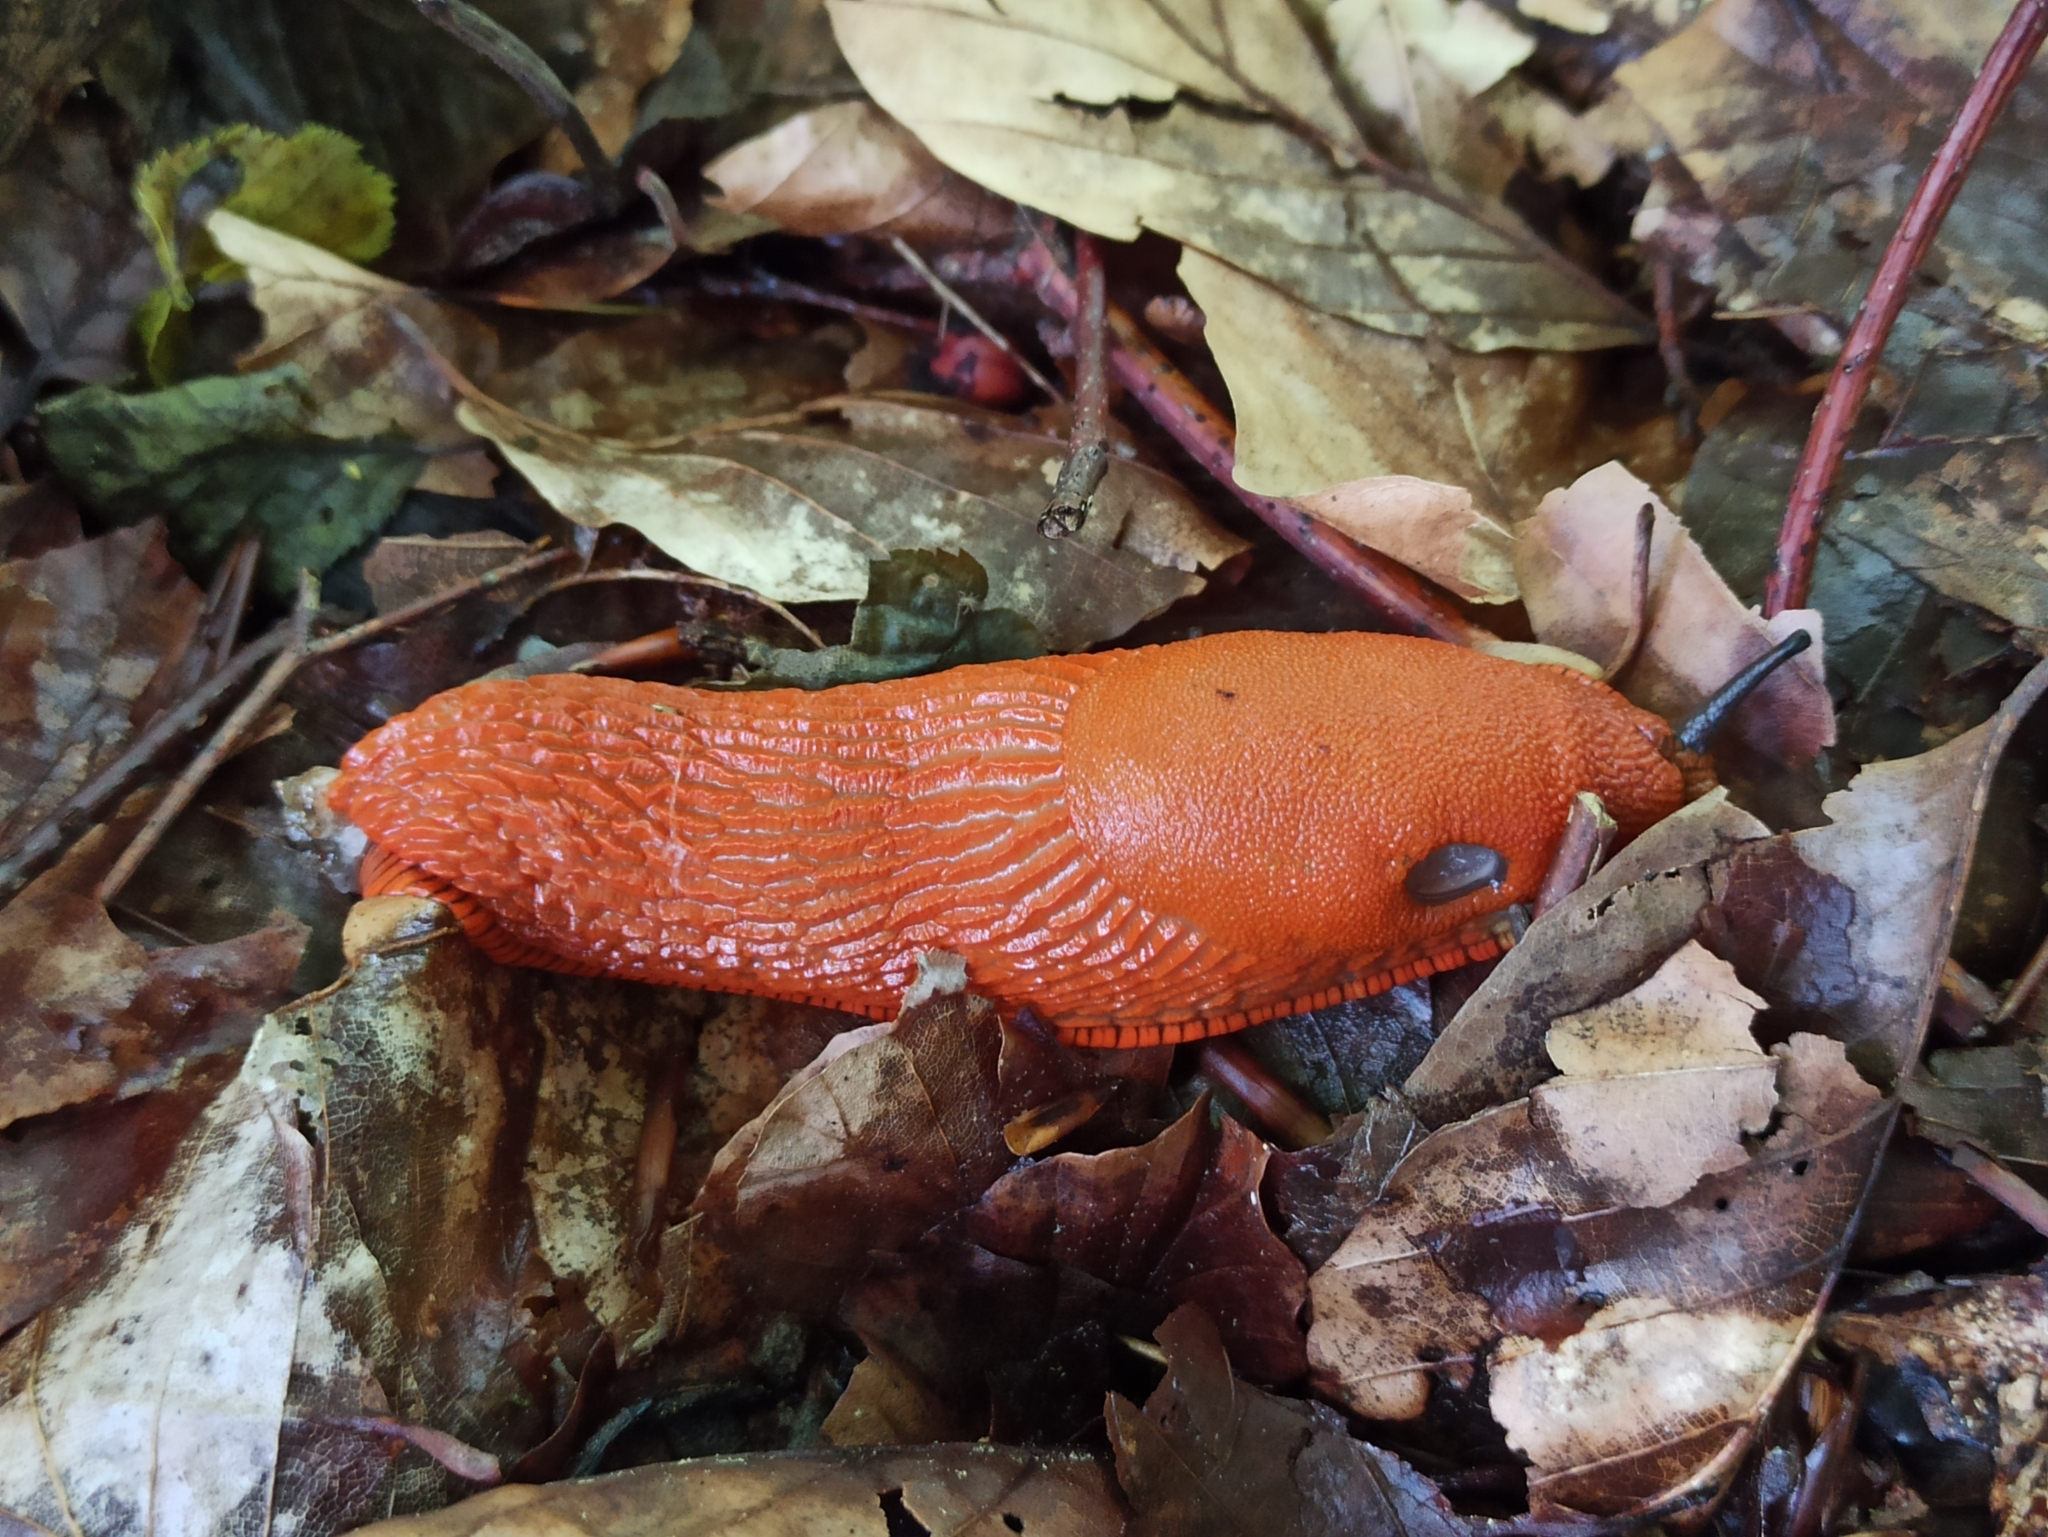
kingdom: Animalia
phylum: Mollusca
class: Gastropoda
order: Stylommatophora
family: Arionidae
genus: Arion
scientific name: Arion vulgaris
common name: Lusitanian slug
